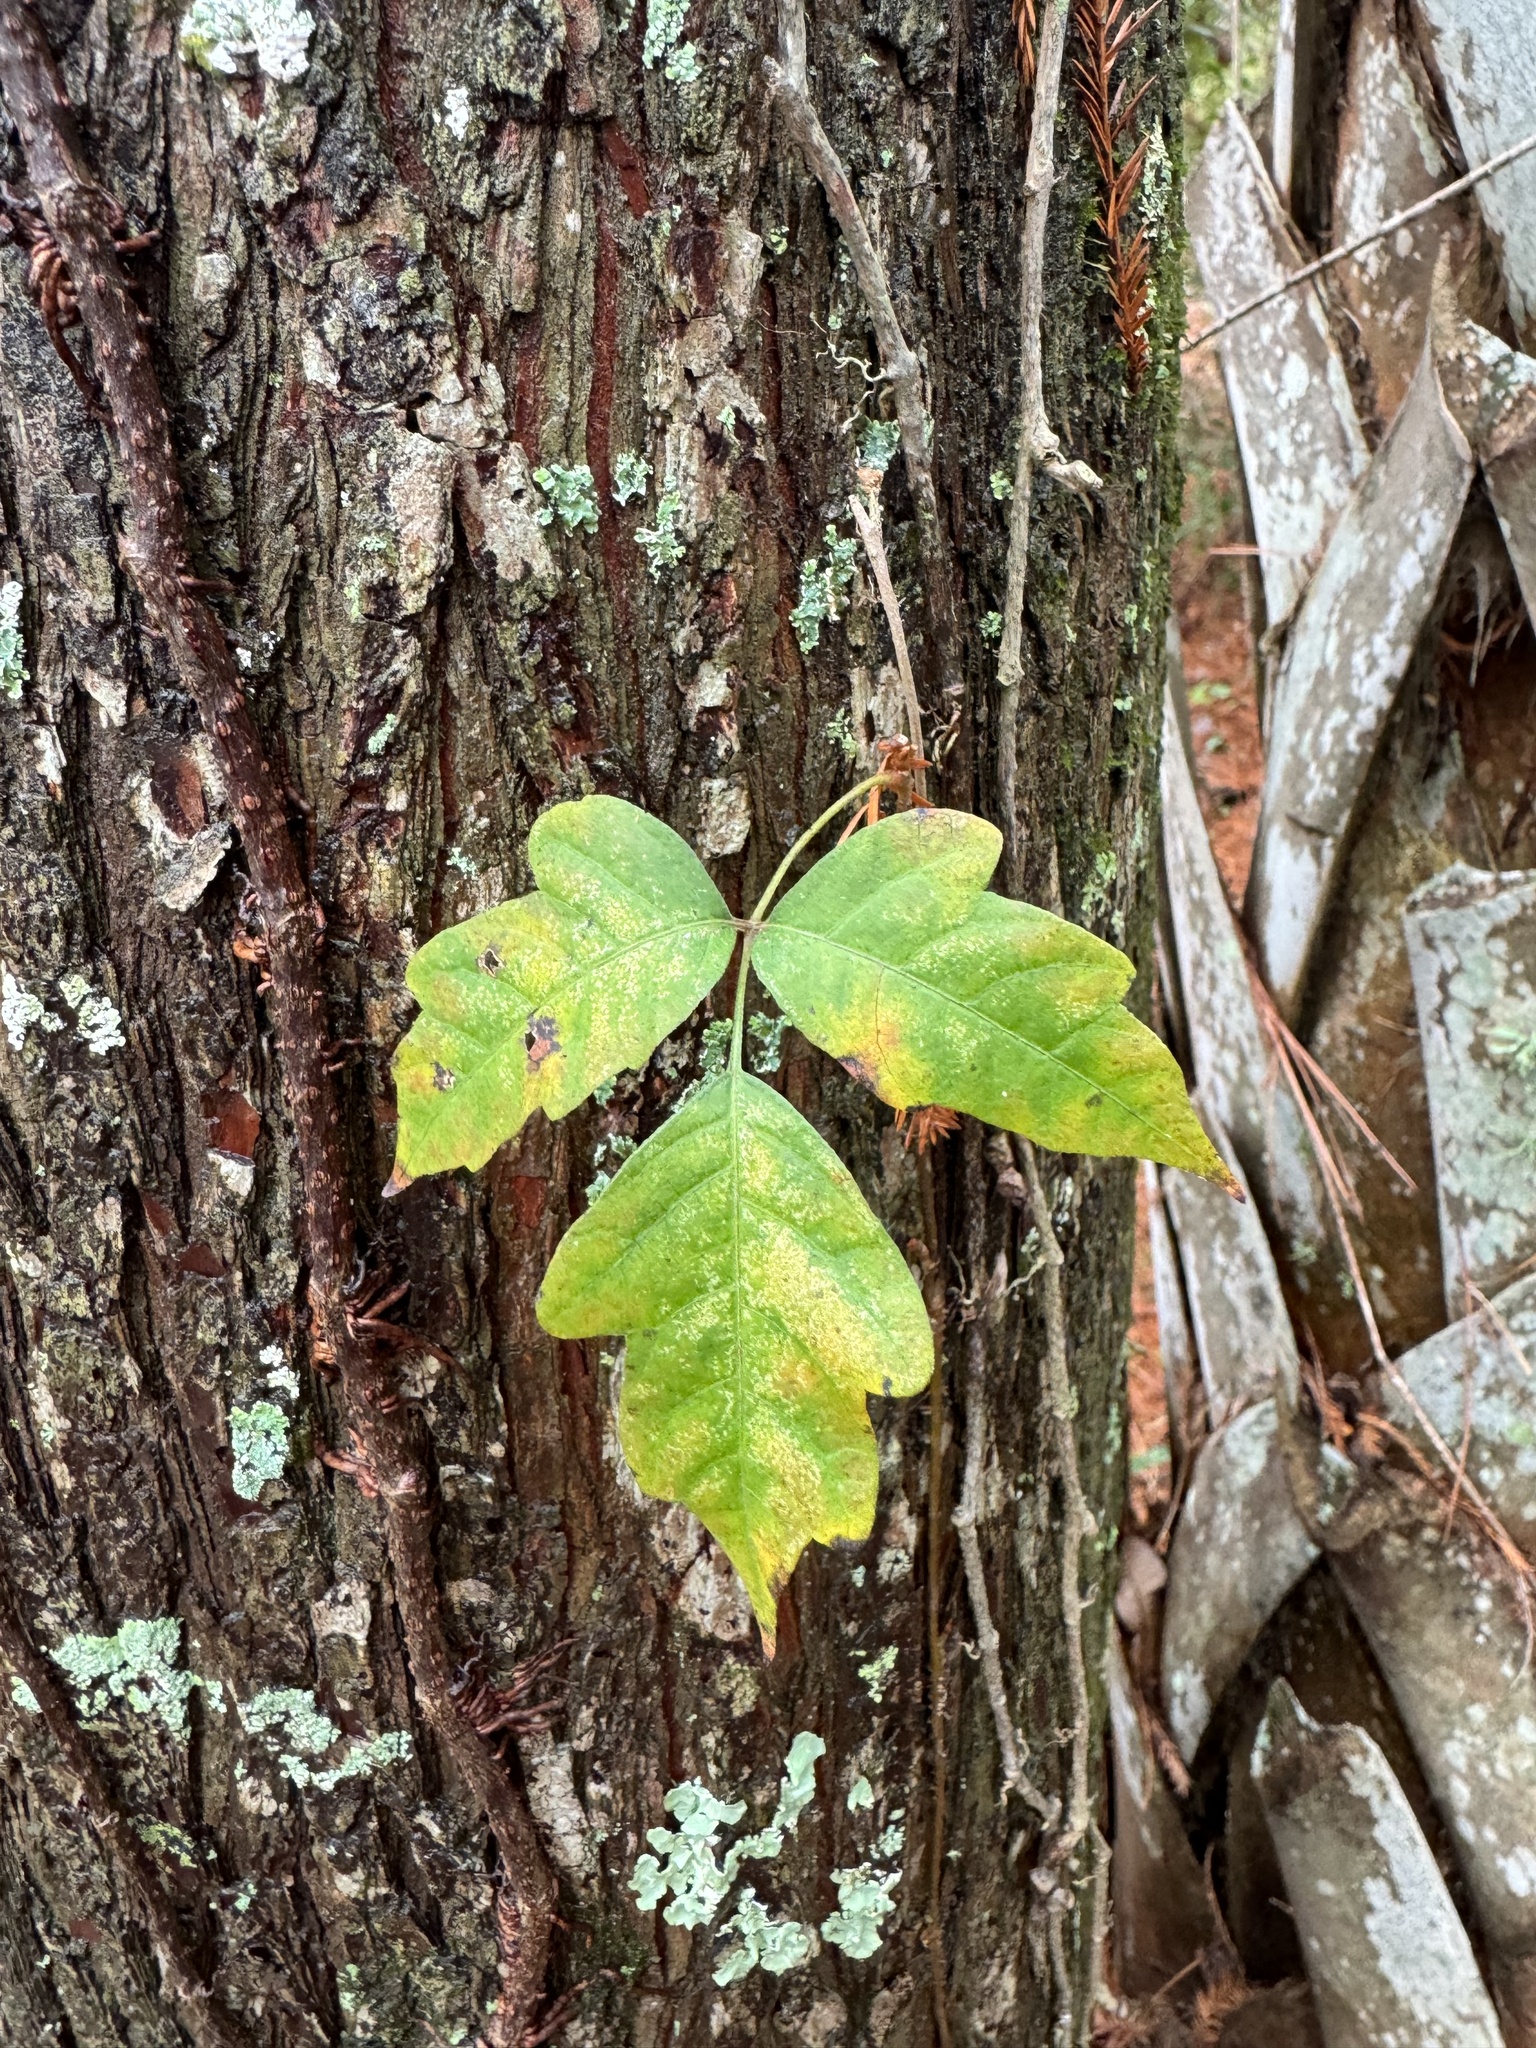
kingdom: Plantae
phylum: Tracheophyta
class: Magnoliopsida
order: Sapindales
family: Anacardiaceae
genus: Toxicodendron
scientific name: Toxicodendron radicans
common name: Poison ivy
